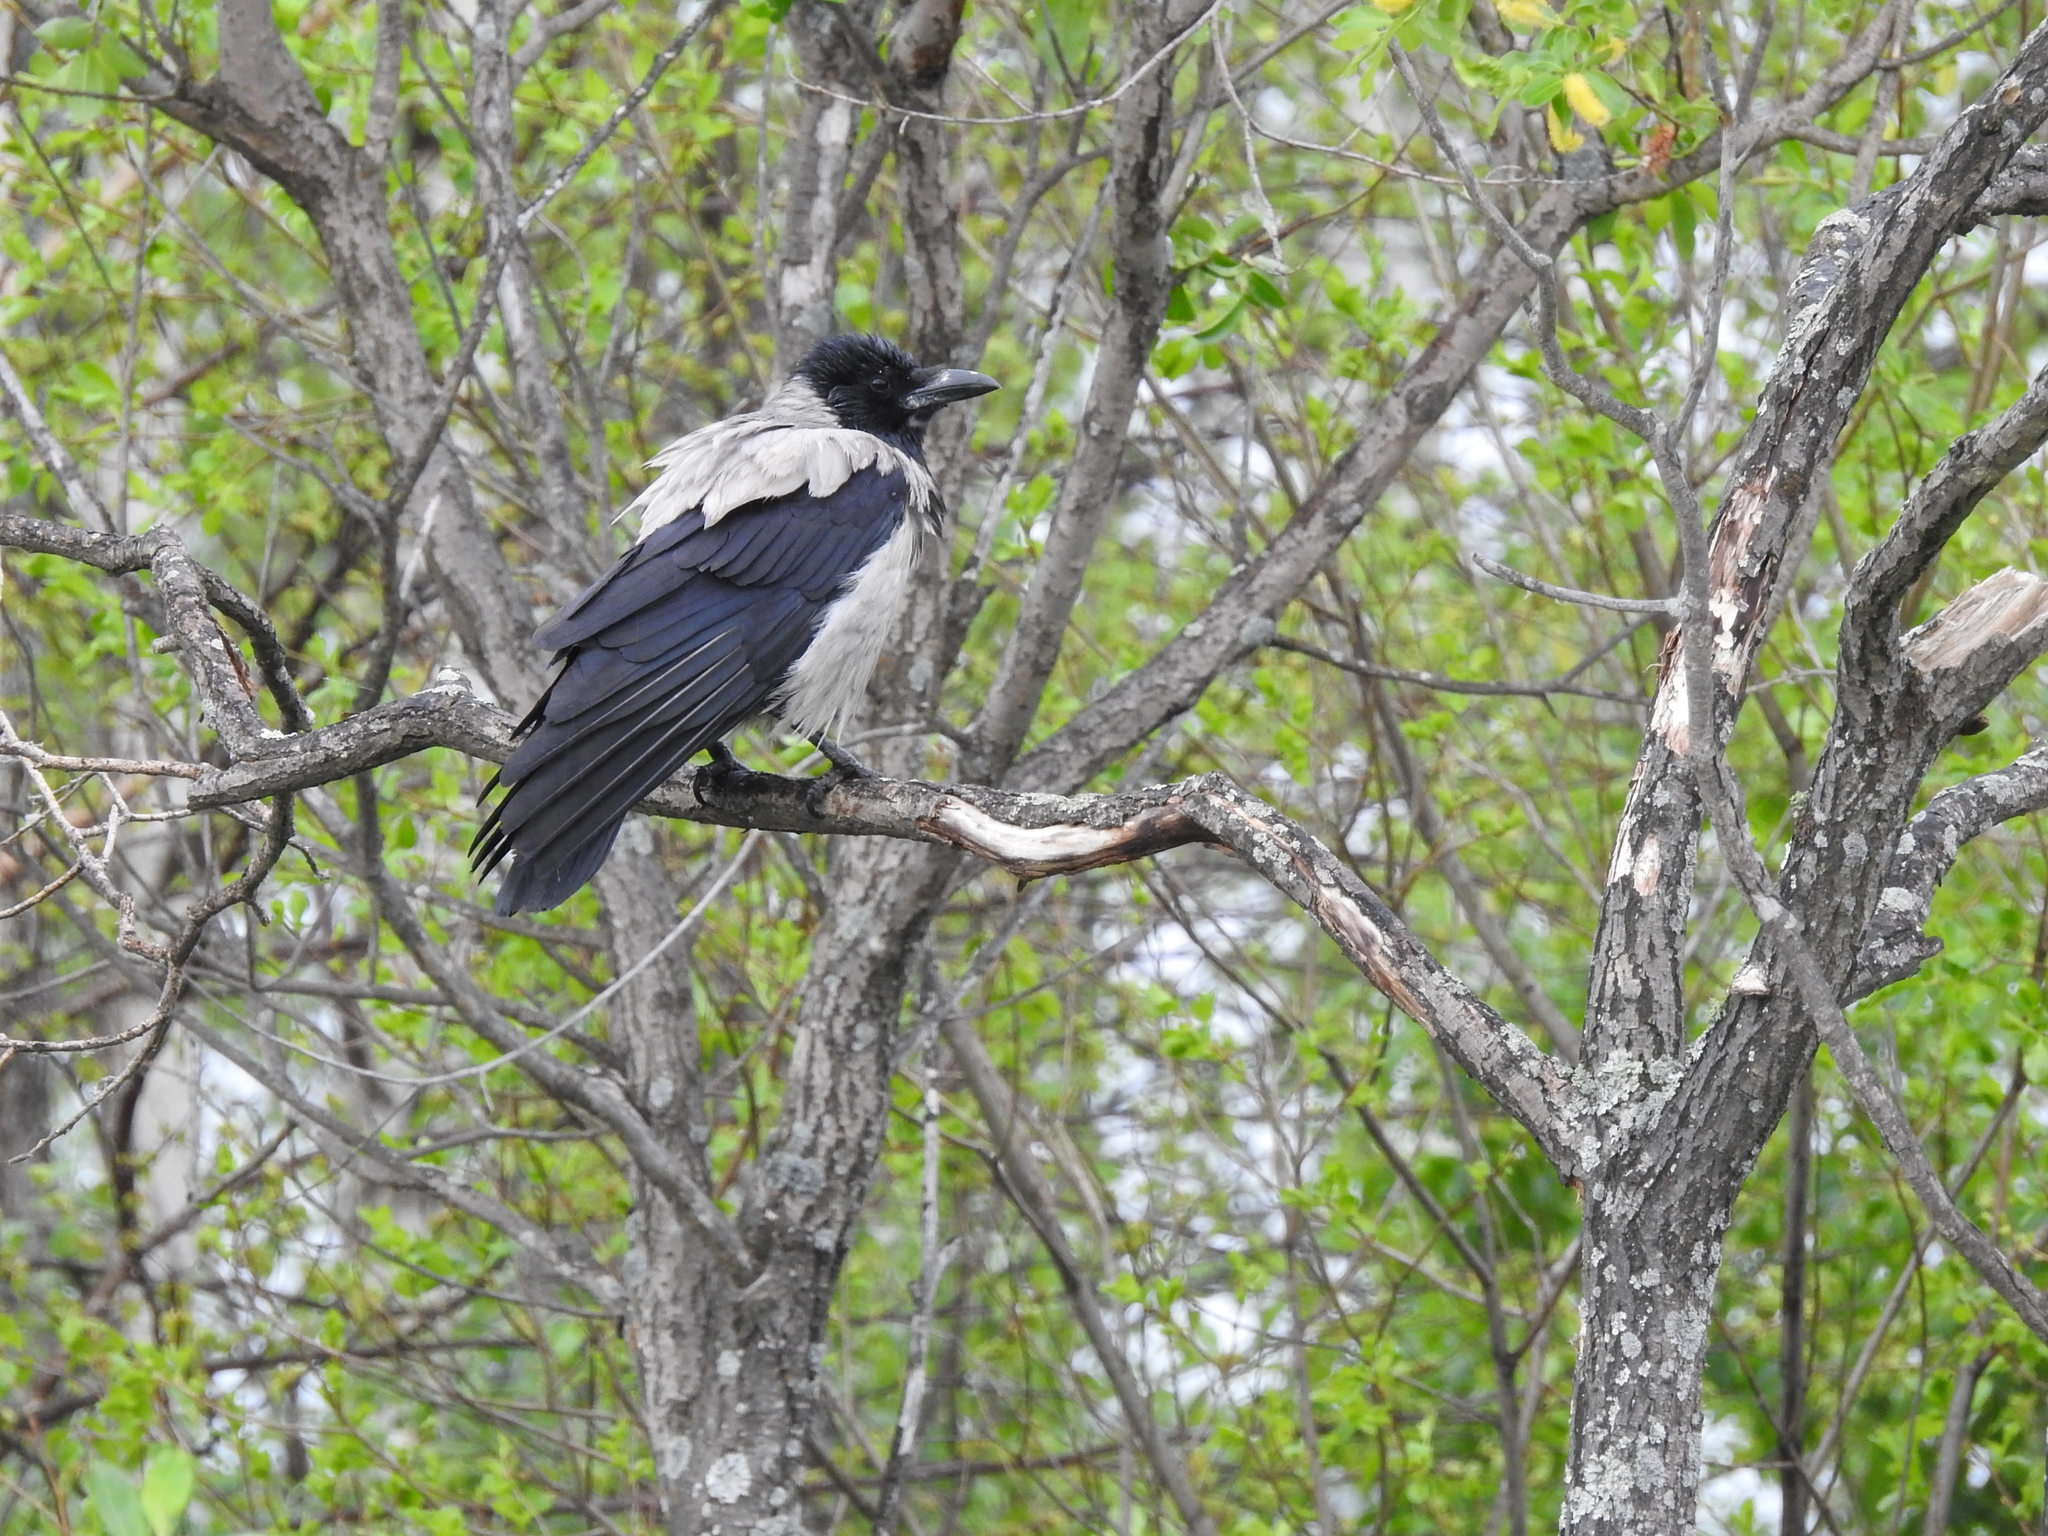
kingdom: Animalia
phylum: Chordata
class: Aves
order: Passeriformes
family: Corvidae
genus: Corvus
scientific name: Corvus cornix
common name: Hooded crow
